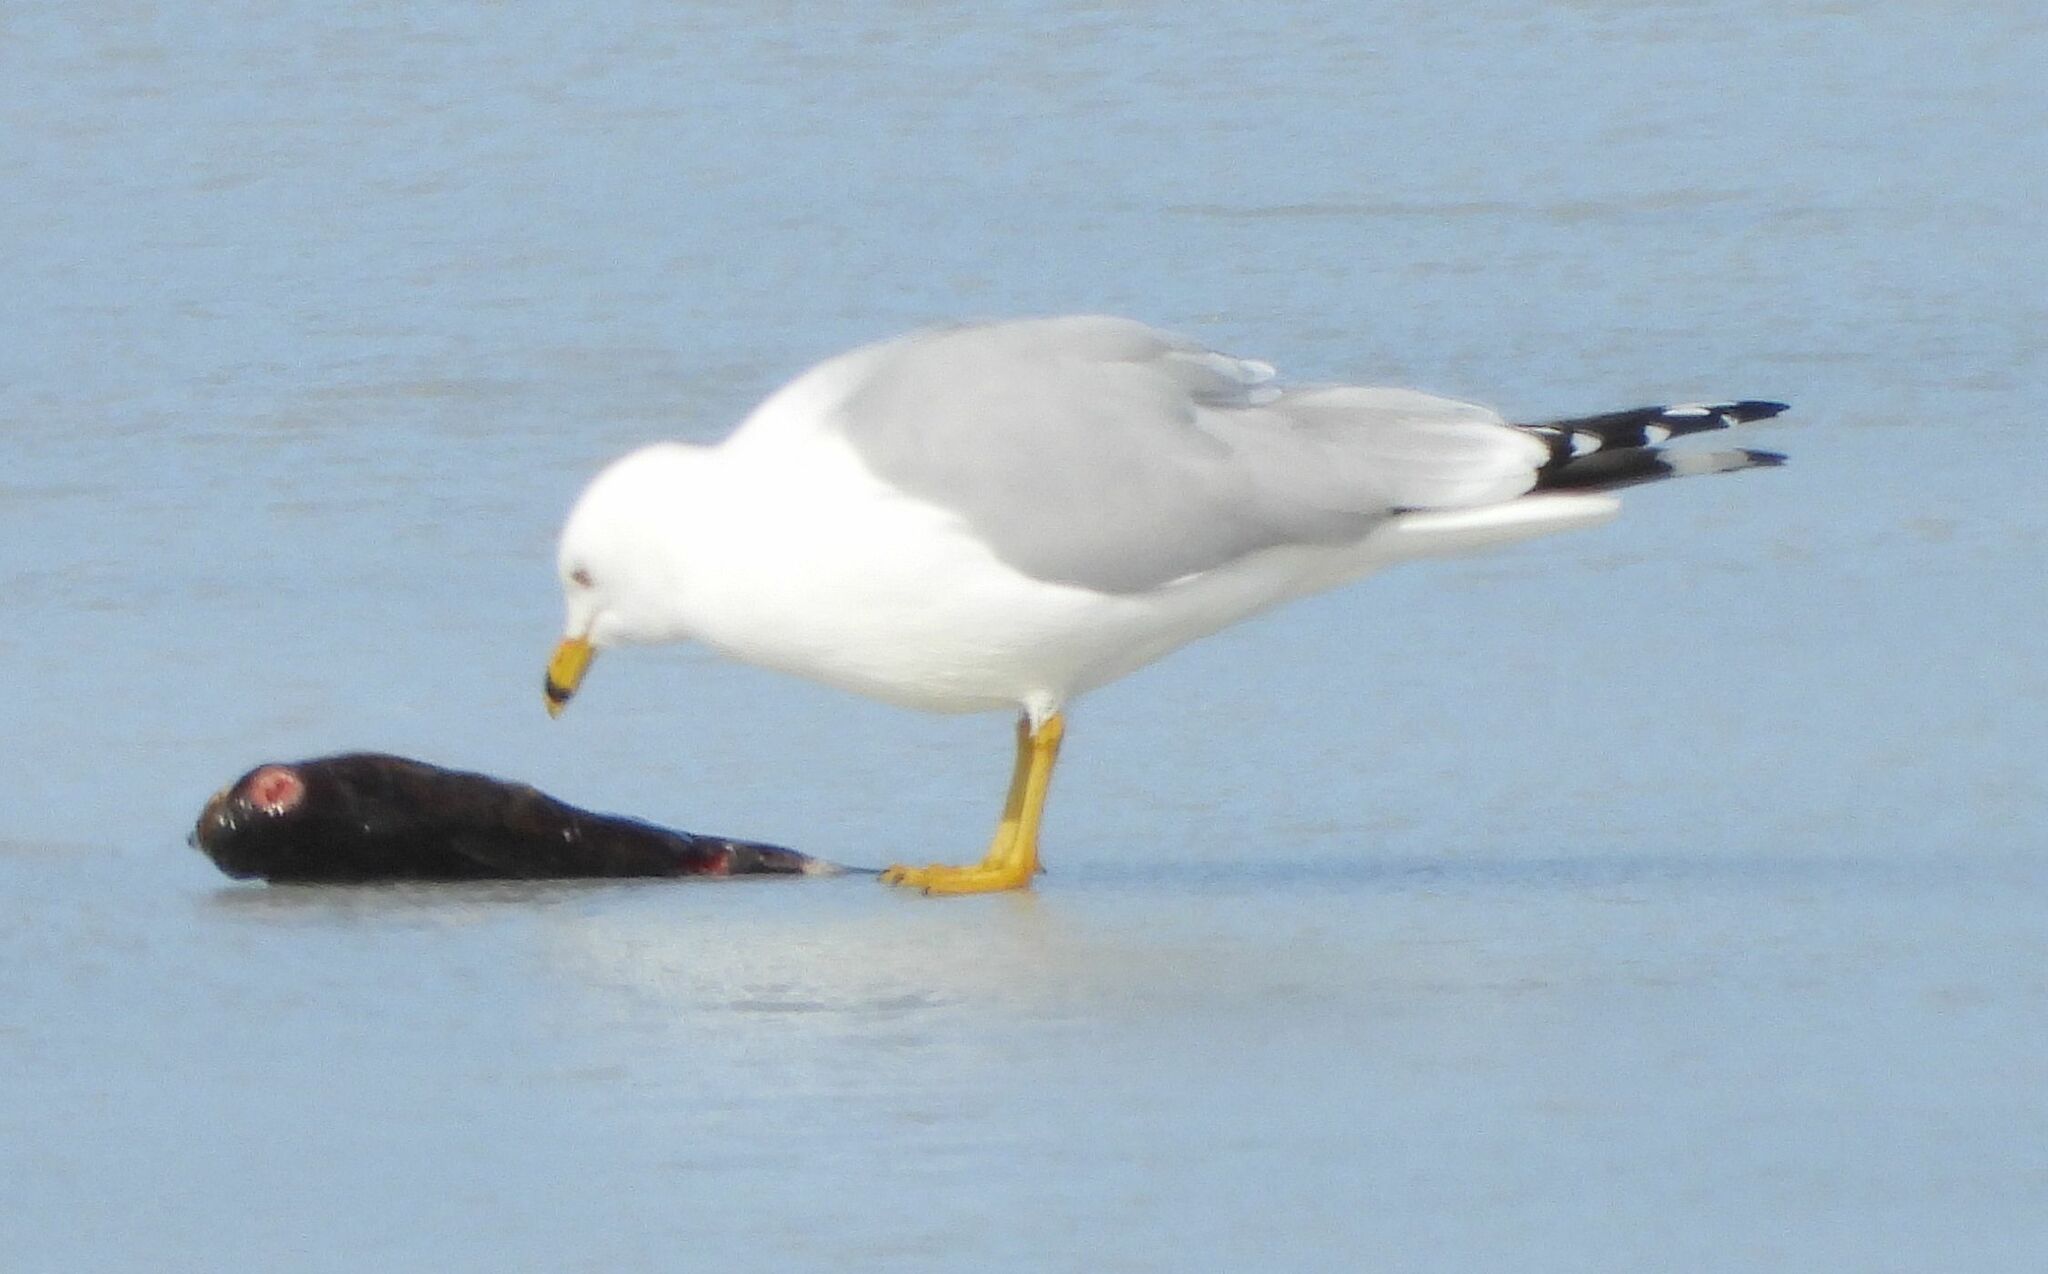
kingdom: Animalia
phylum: Chordata
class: Aves
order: Charadriiformes
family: Laridae
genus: Larus
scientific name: Larus delawarensis
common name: Ring-billed gull
